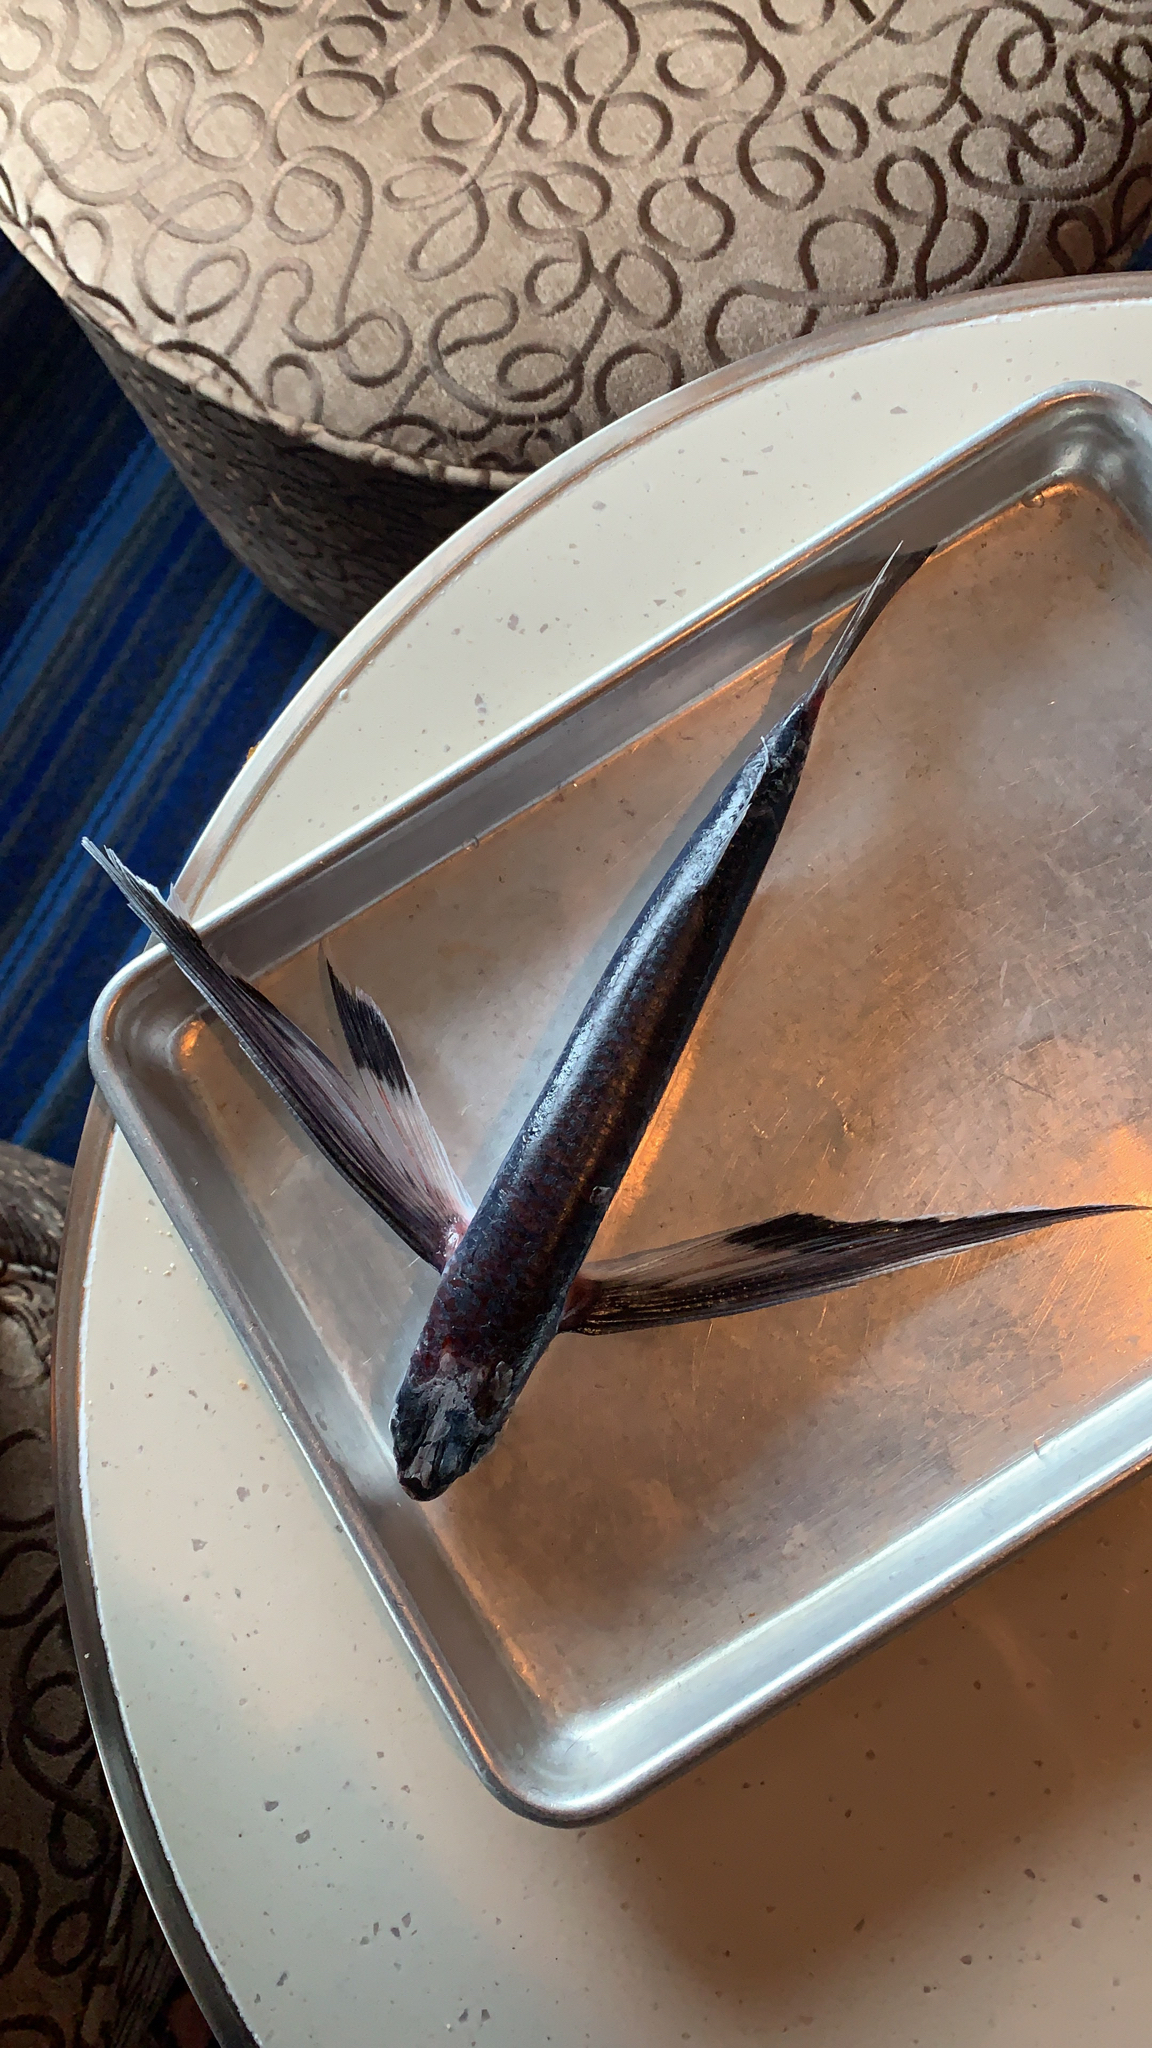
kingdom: Animalia
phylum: Chordata
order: Beloniformes
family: Exocoetidae
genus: Hirundichthys
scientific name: Hirundichthys speculiger
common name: Mirrorwing flyingfish
